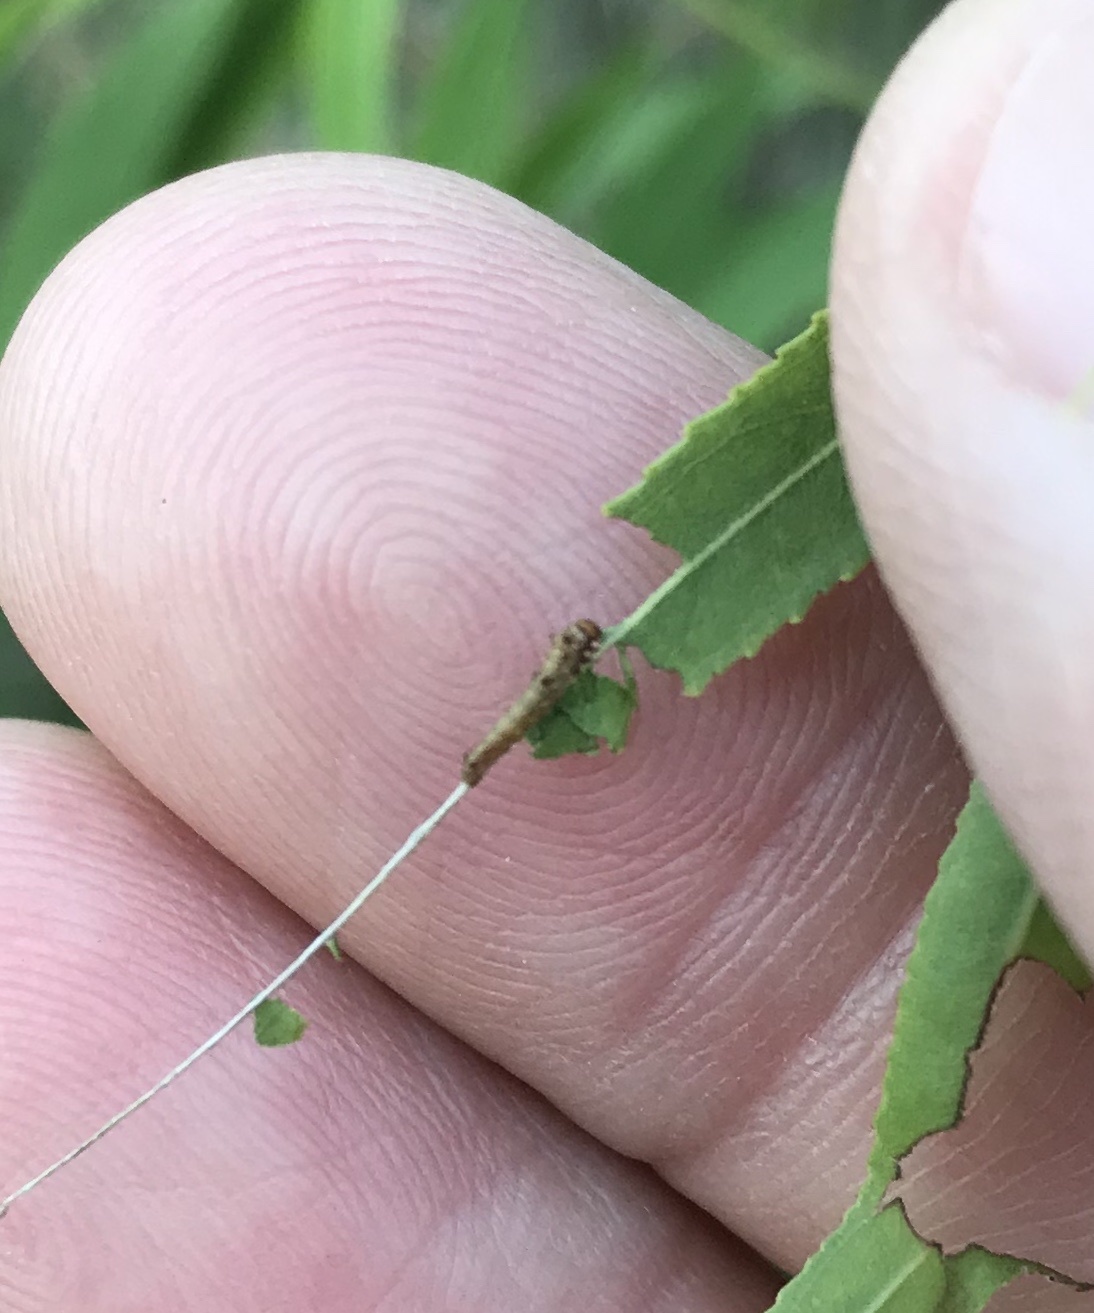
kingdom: Animalia
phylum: Arthropoda
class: Insecta
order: Lepidoptera
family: Nymphalidae
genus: Limenitis
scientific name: Limenitis archippus
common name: Viceroy
